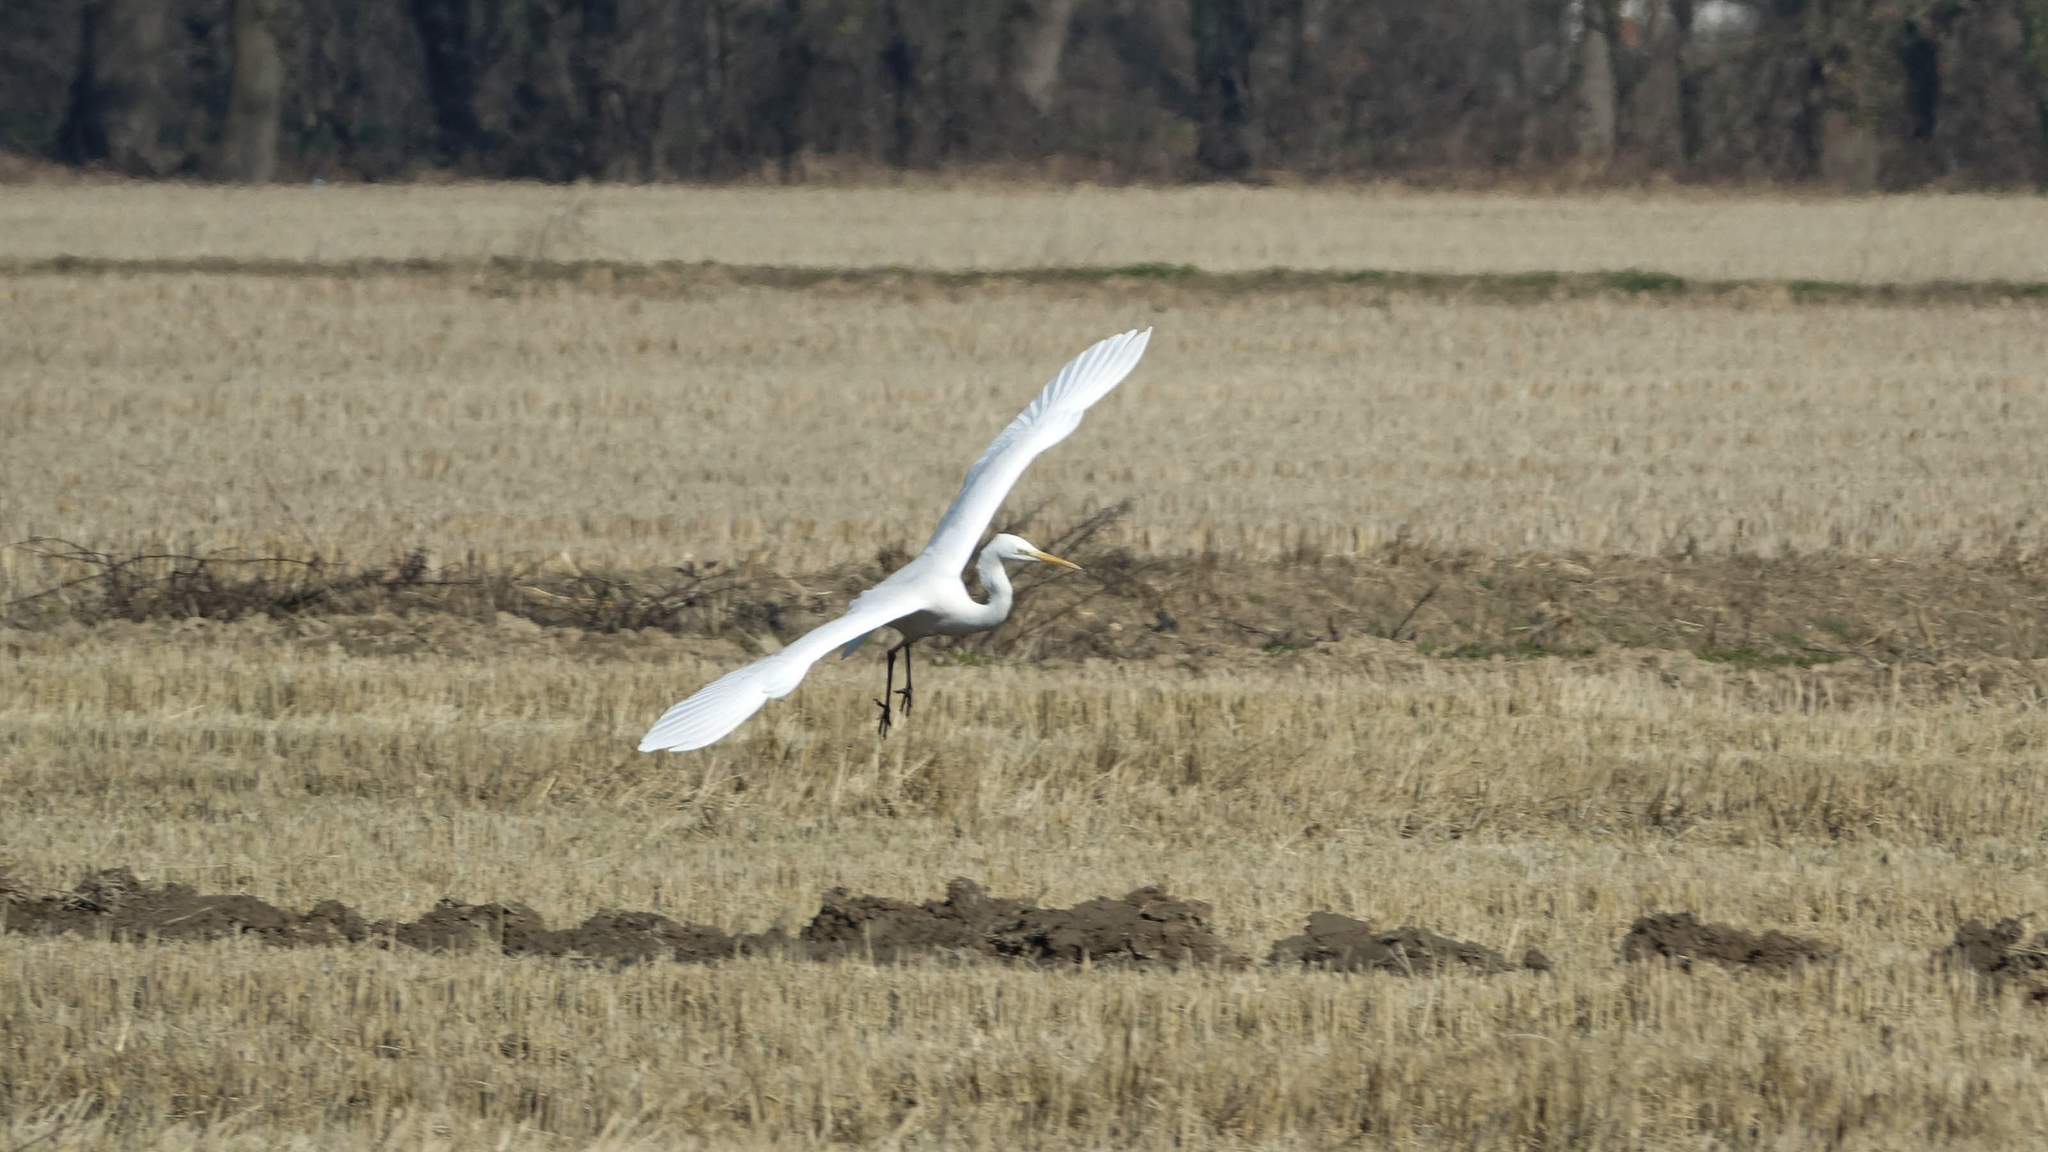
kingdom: Animalia
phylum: Chordata
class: Aves
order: Pelecaniformes
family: Ardeidae
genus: Ardea
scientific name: Ardea alba
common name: Great egret
